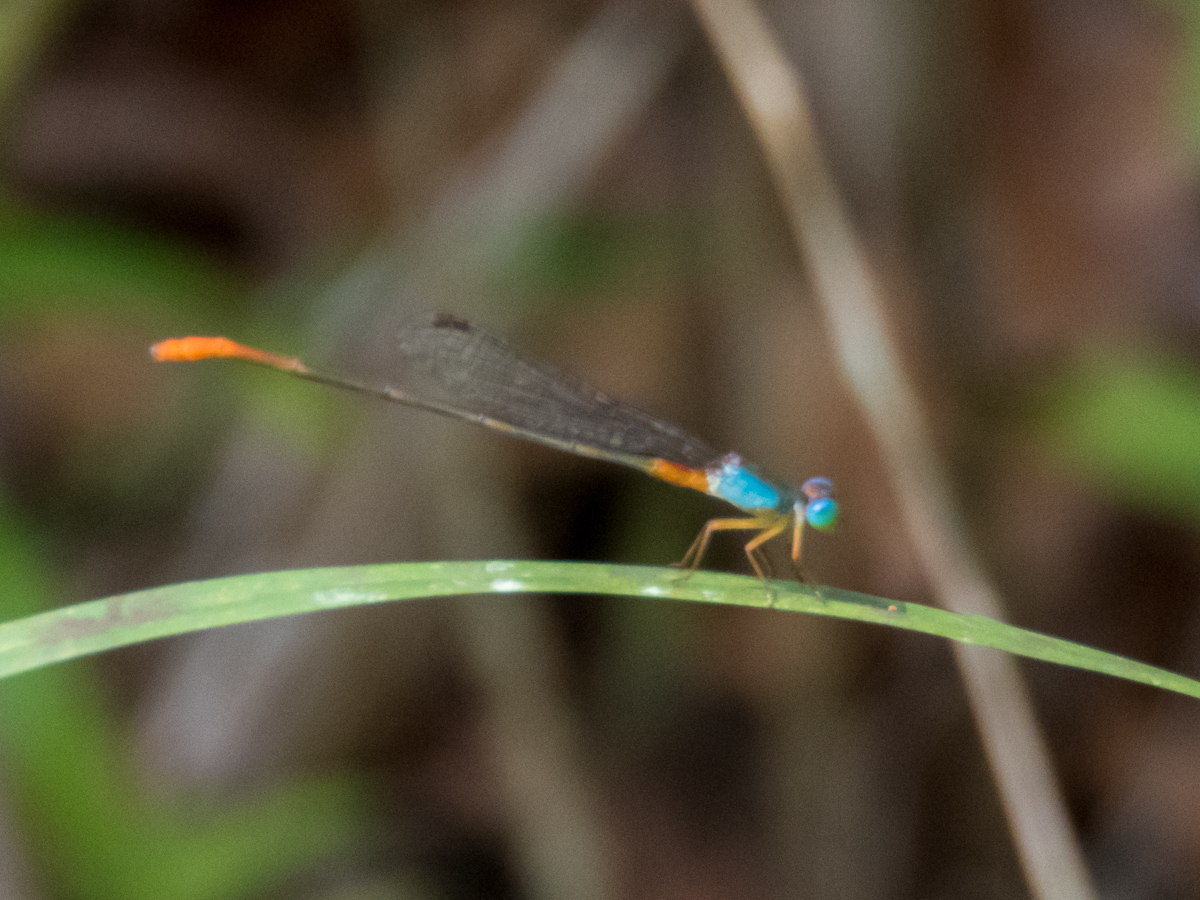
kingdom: Animalia
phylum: Arthropoda
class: Insecta
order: Odonata
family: Coenagrionidae
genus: Ceriagrion
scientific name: Ceriagrion cerinorubellum
